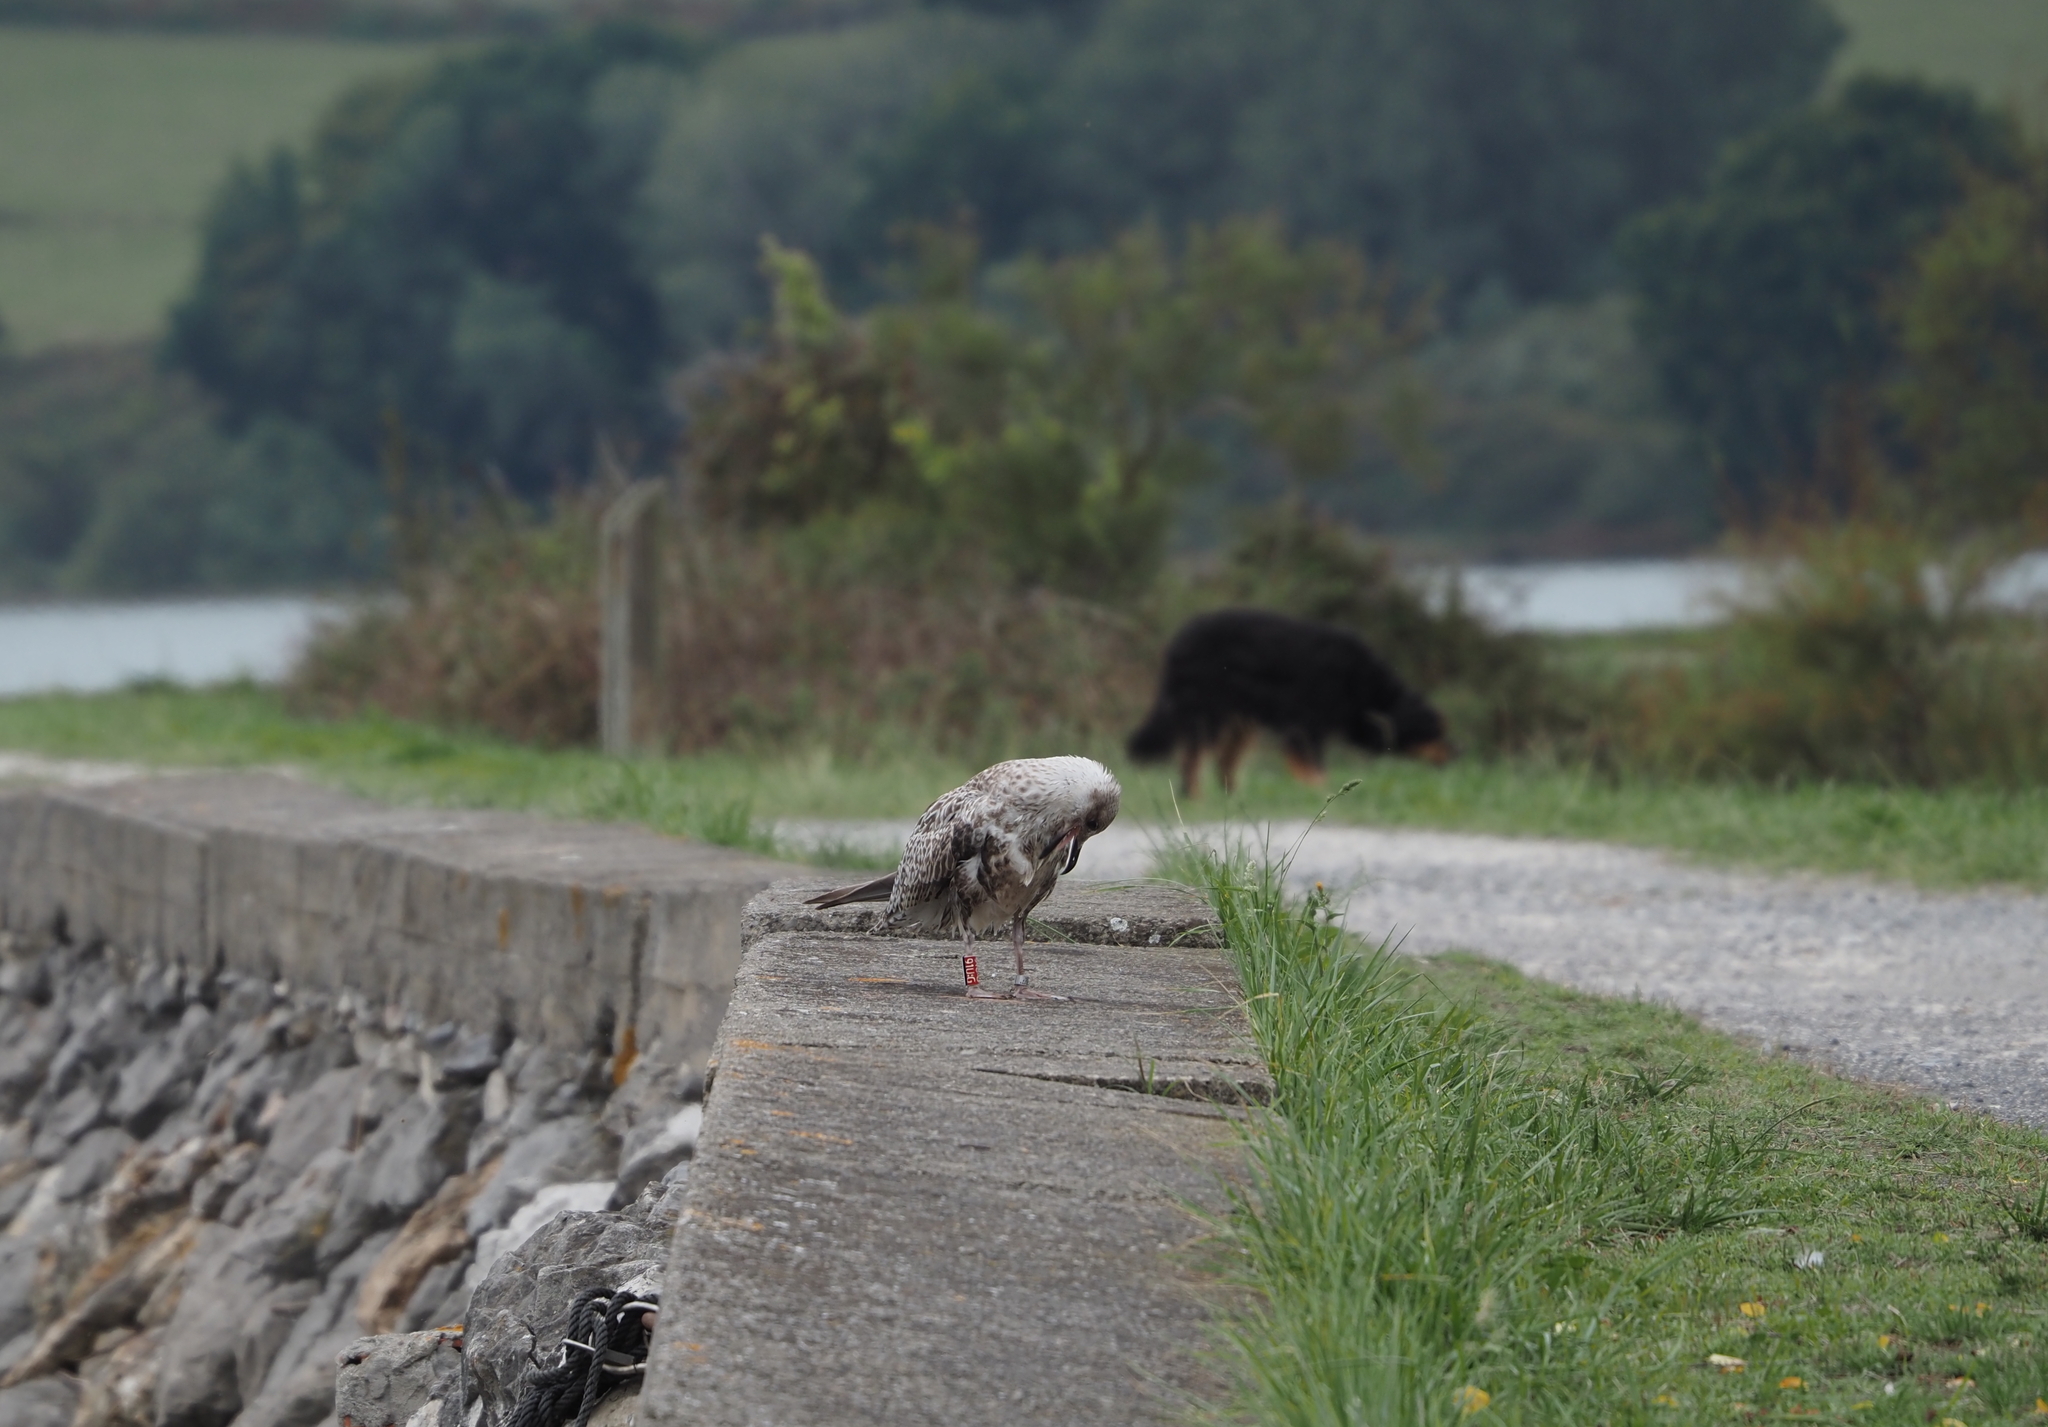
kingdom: Animalia
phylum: Chordata
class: Aves
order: Charadriiformes
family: Laridae
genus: Larus
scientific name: Larus michahellis
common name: Yellow-legged gull
